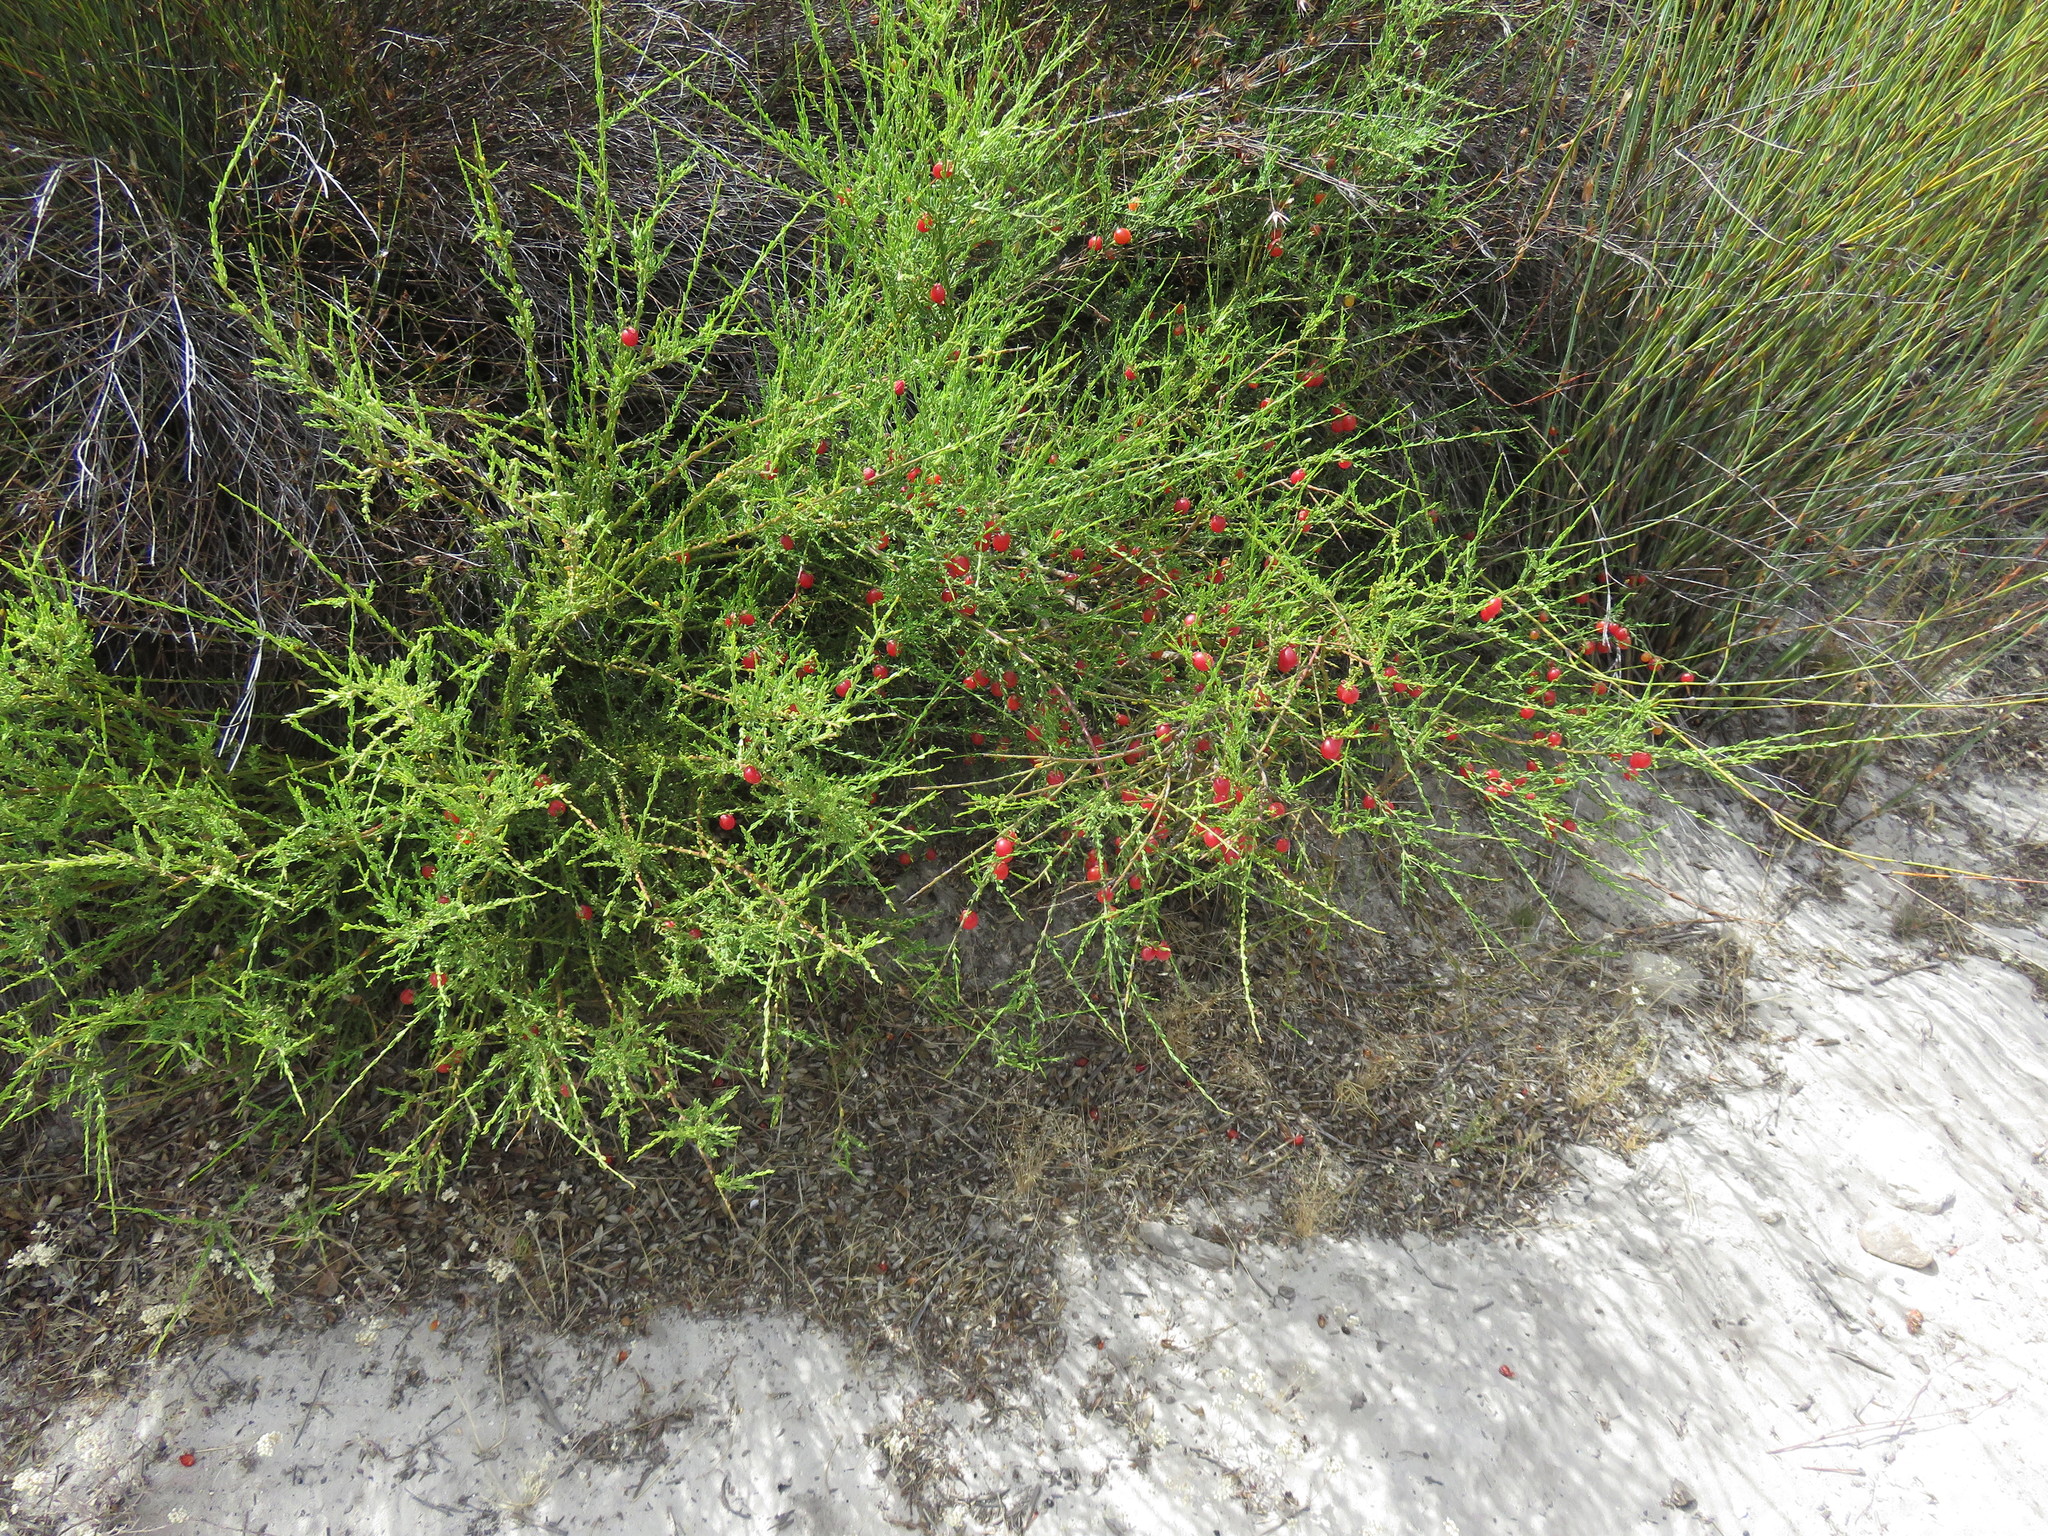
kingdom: Plantae
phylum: Tracheophyta
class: Magnoliopsida
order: Fabales
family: Polygalaceae
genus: Muraltia
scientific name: Muraltia spinosa
